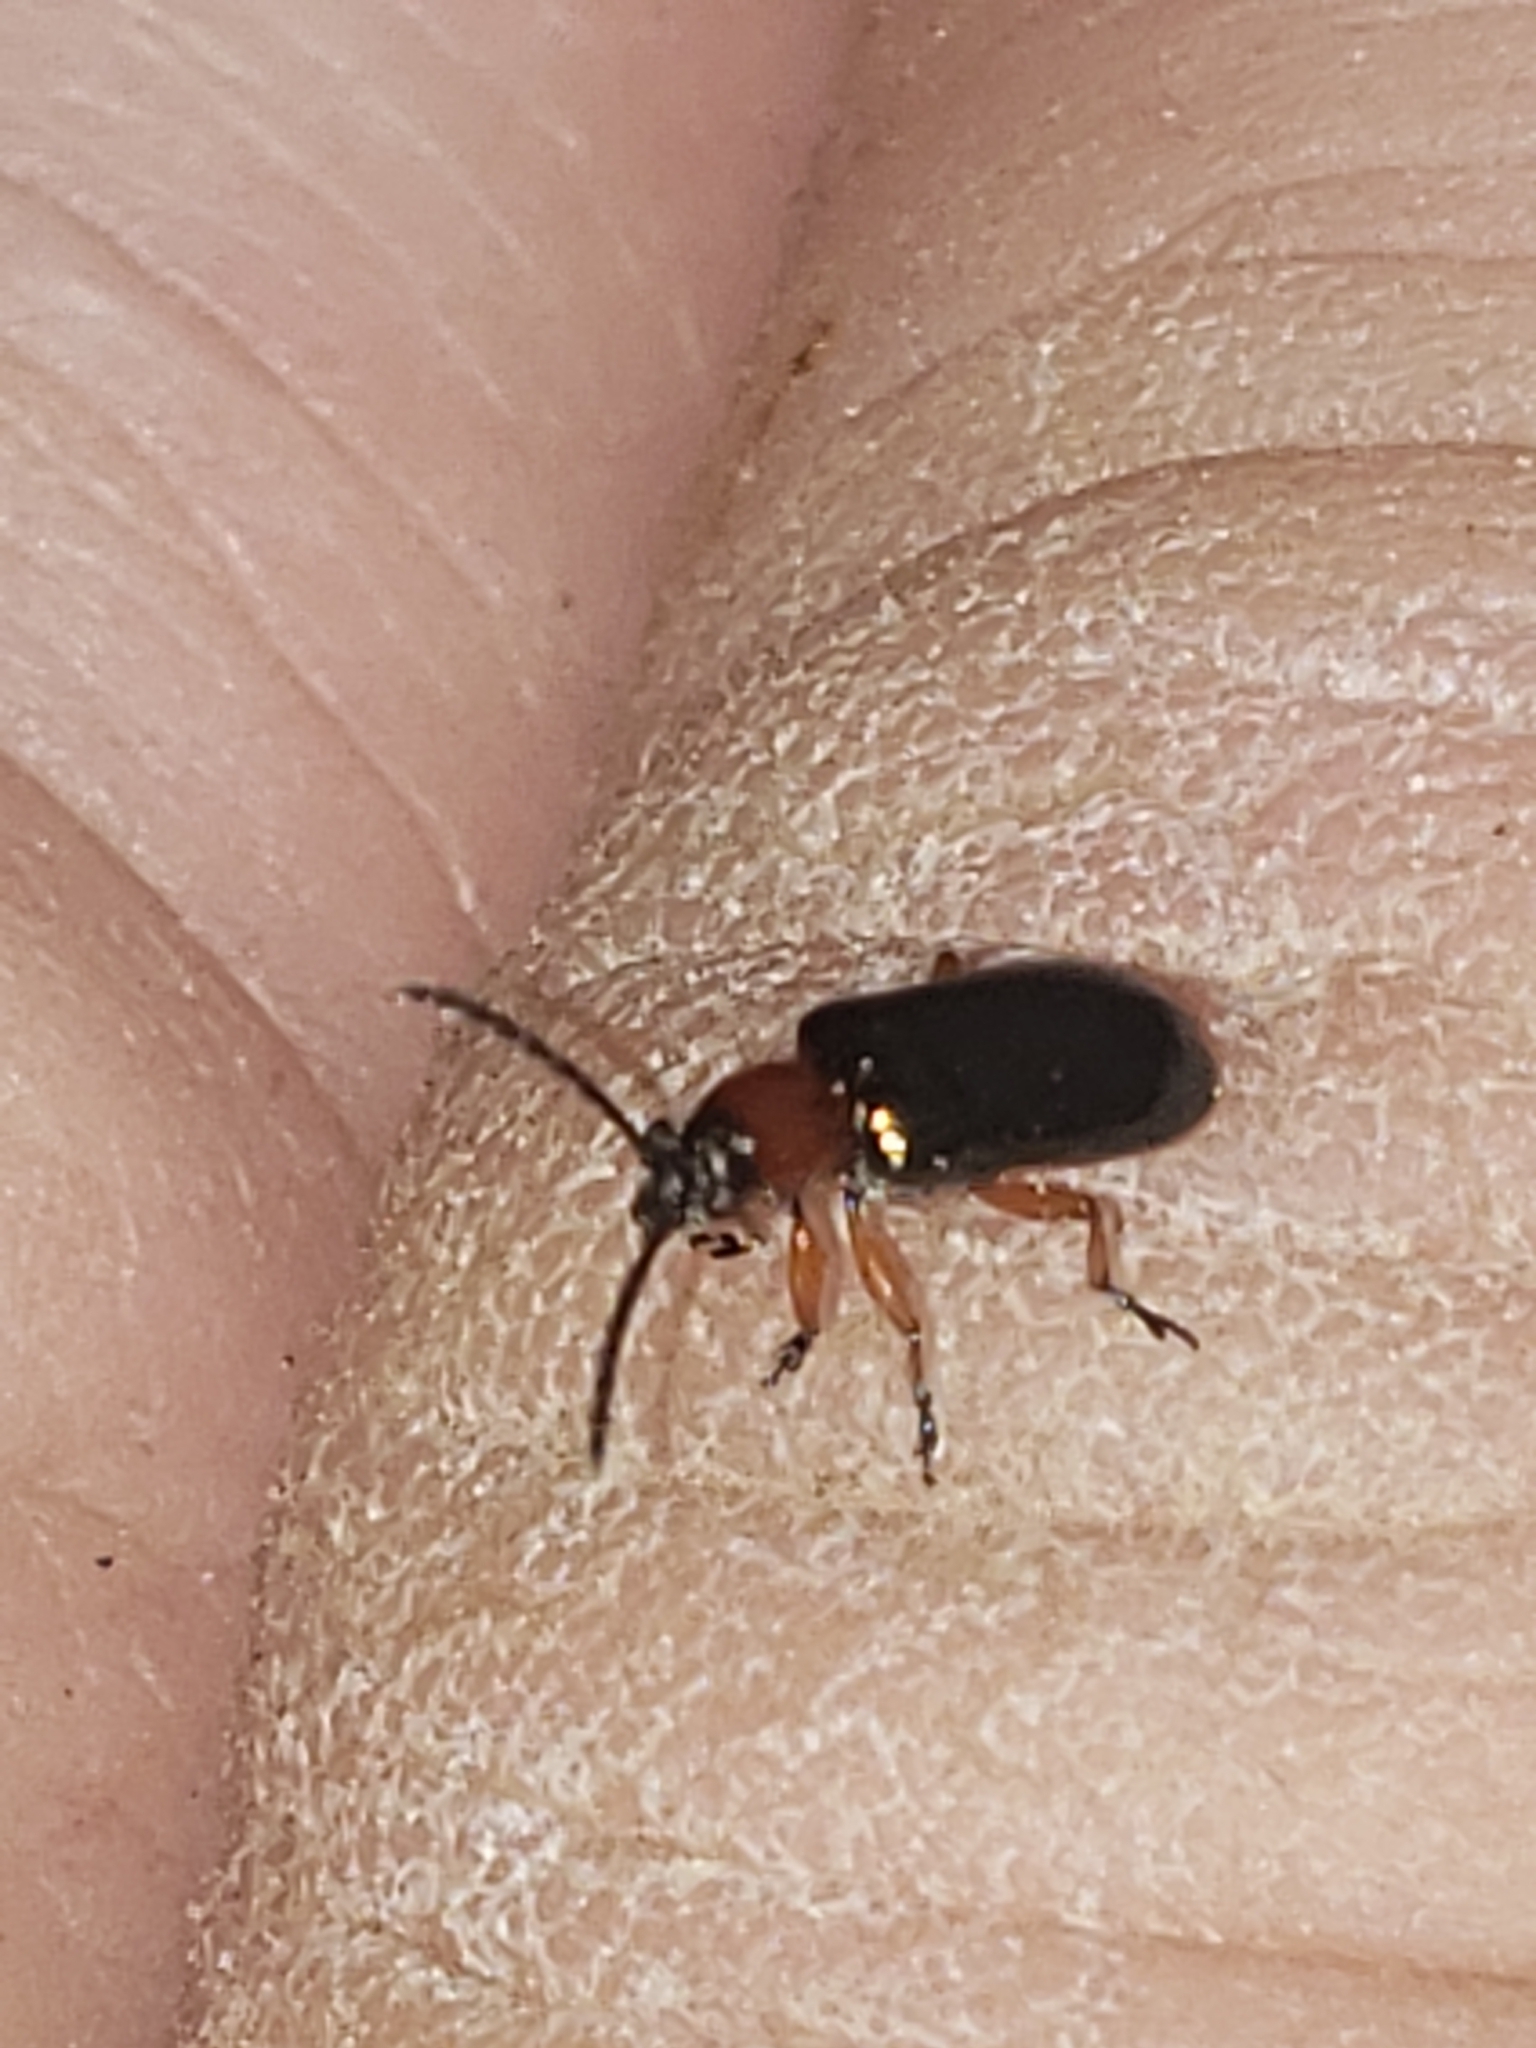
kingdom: Animalia
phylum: Arthropoda
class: Insecta
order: Coleoptera
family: Chrysomelidae
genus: Oulema
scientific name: Oulema melanopus
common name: Cereal leaf beetle
